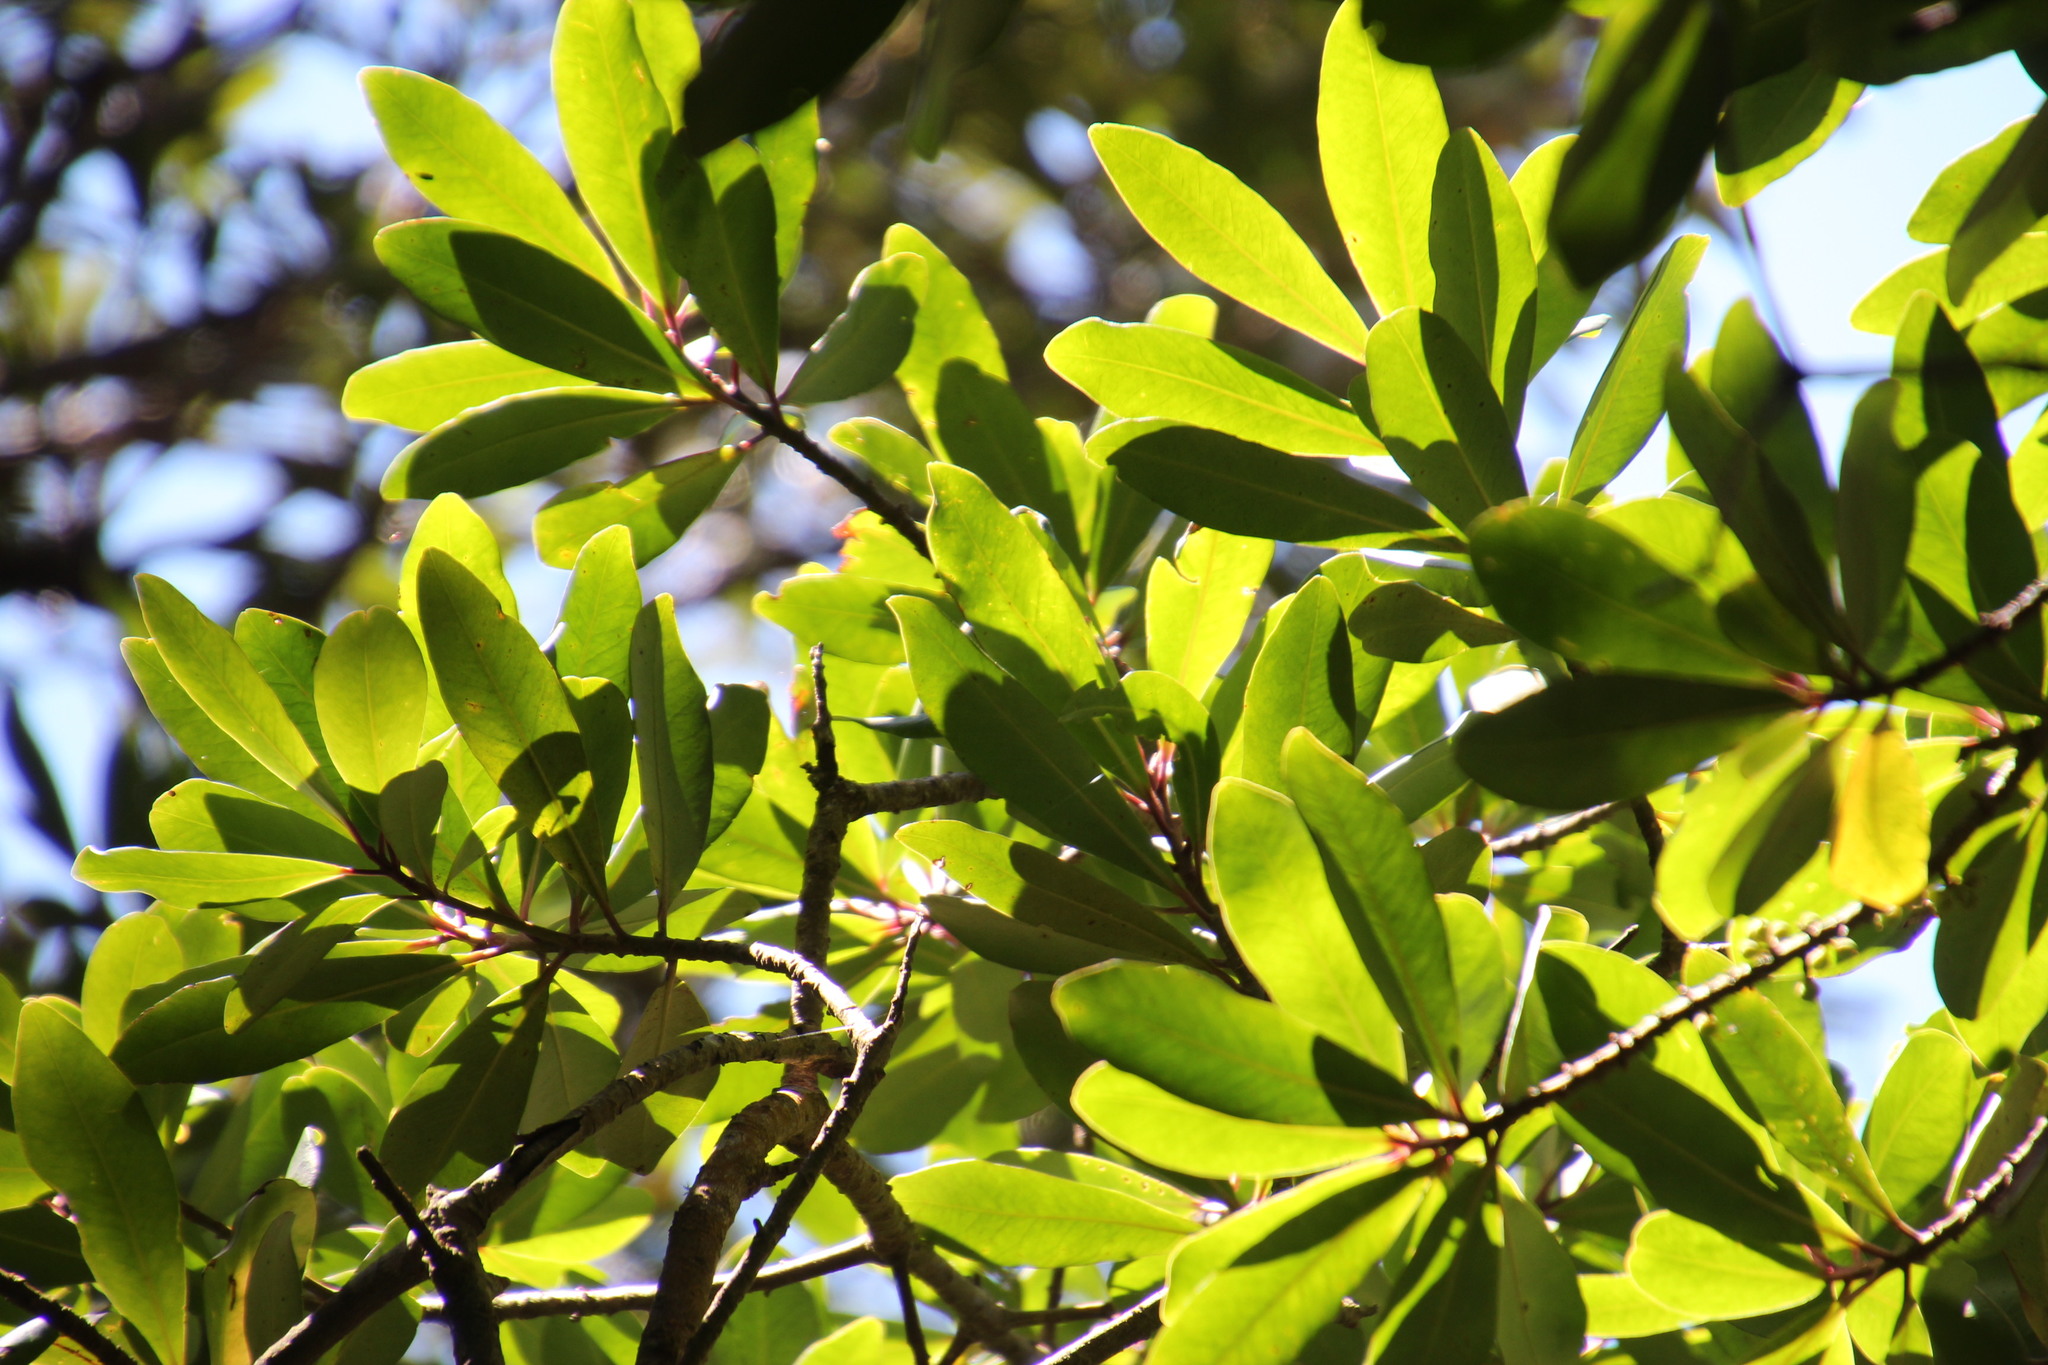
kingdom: Plantae
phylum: Tracheophyta
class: Magnoliopsida
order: Ericales
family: Primulaceae
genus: Myrsine
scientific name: Myrsine melanophloeos
